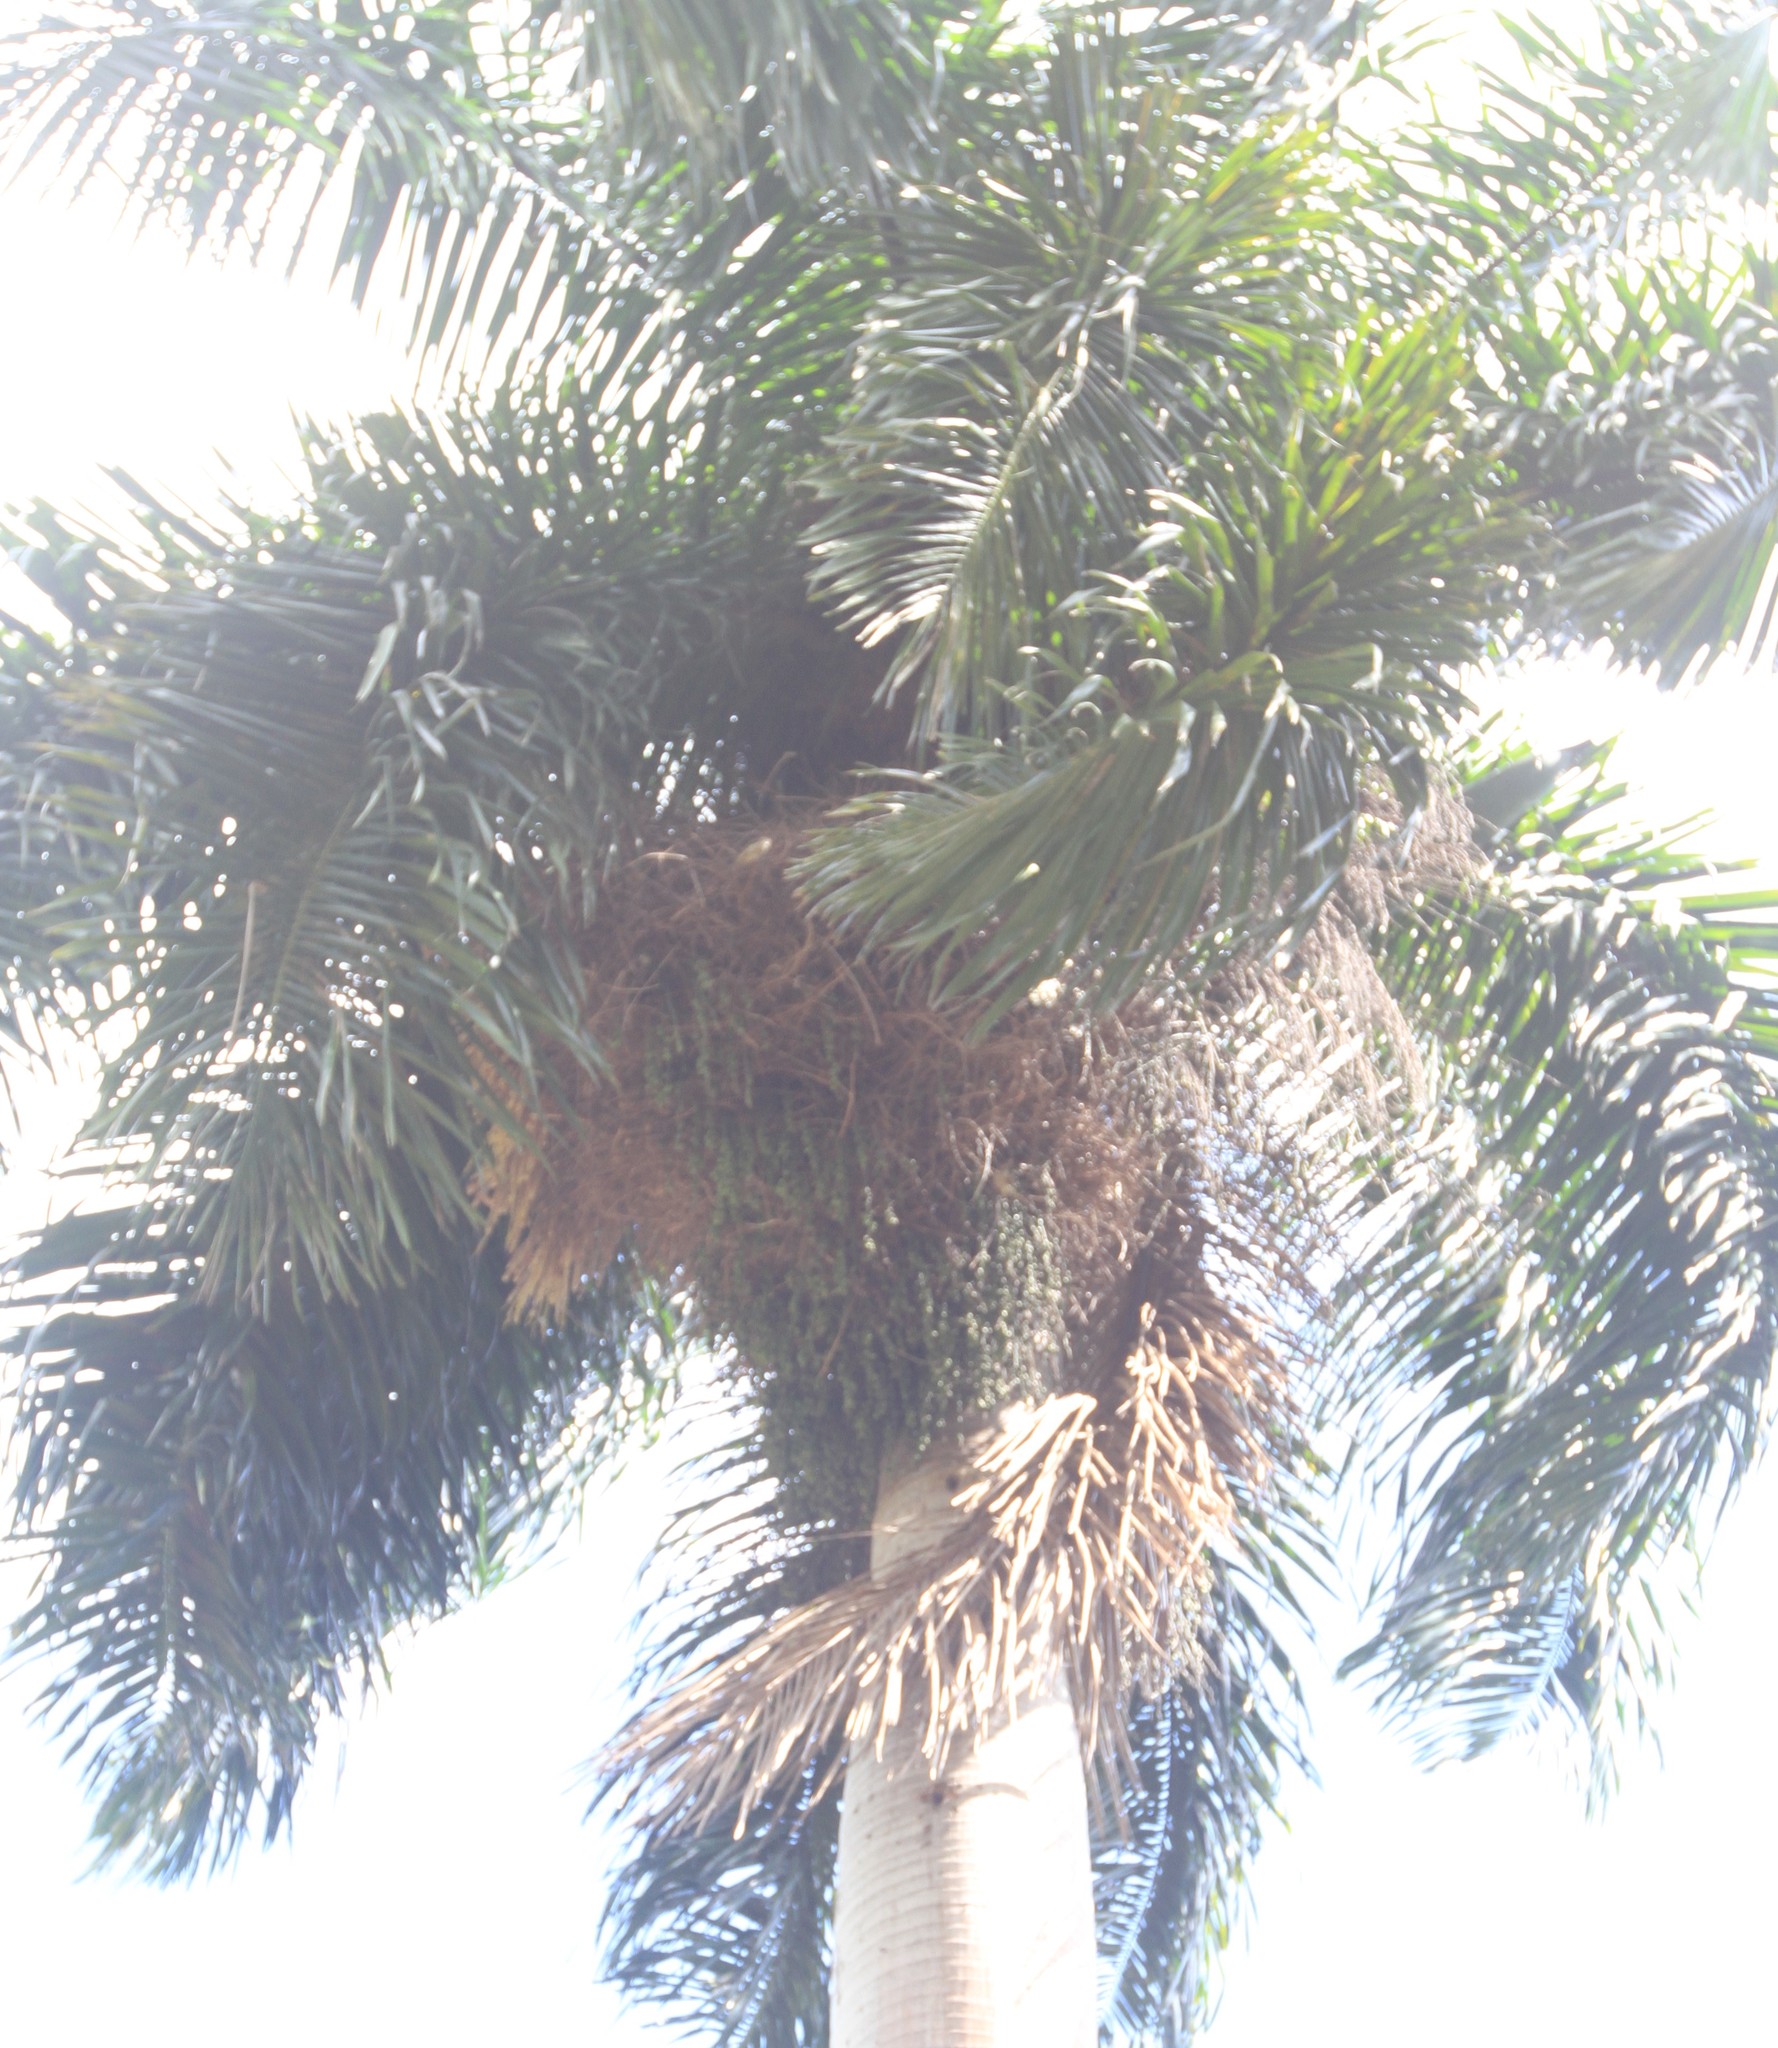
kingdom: Plantae
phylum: Tracheophyta
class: Liliopsida
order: Arecales
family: Arecaceae
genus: Roystonea
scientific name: Roystonea borinquena
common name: Puerto rican royal palm
